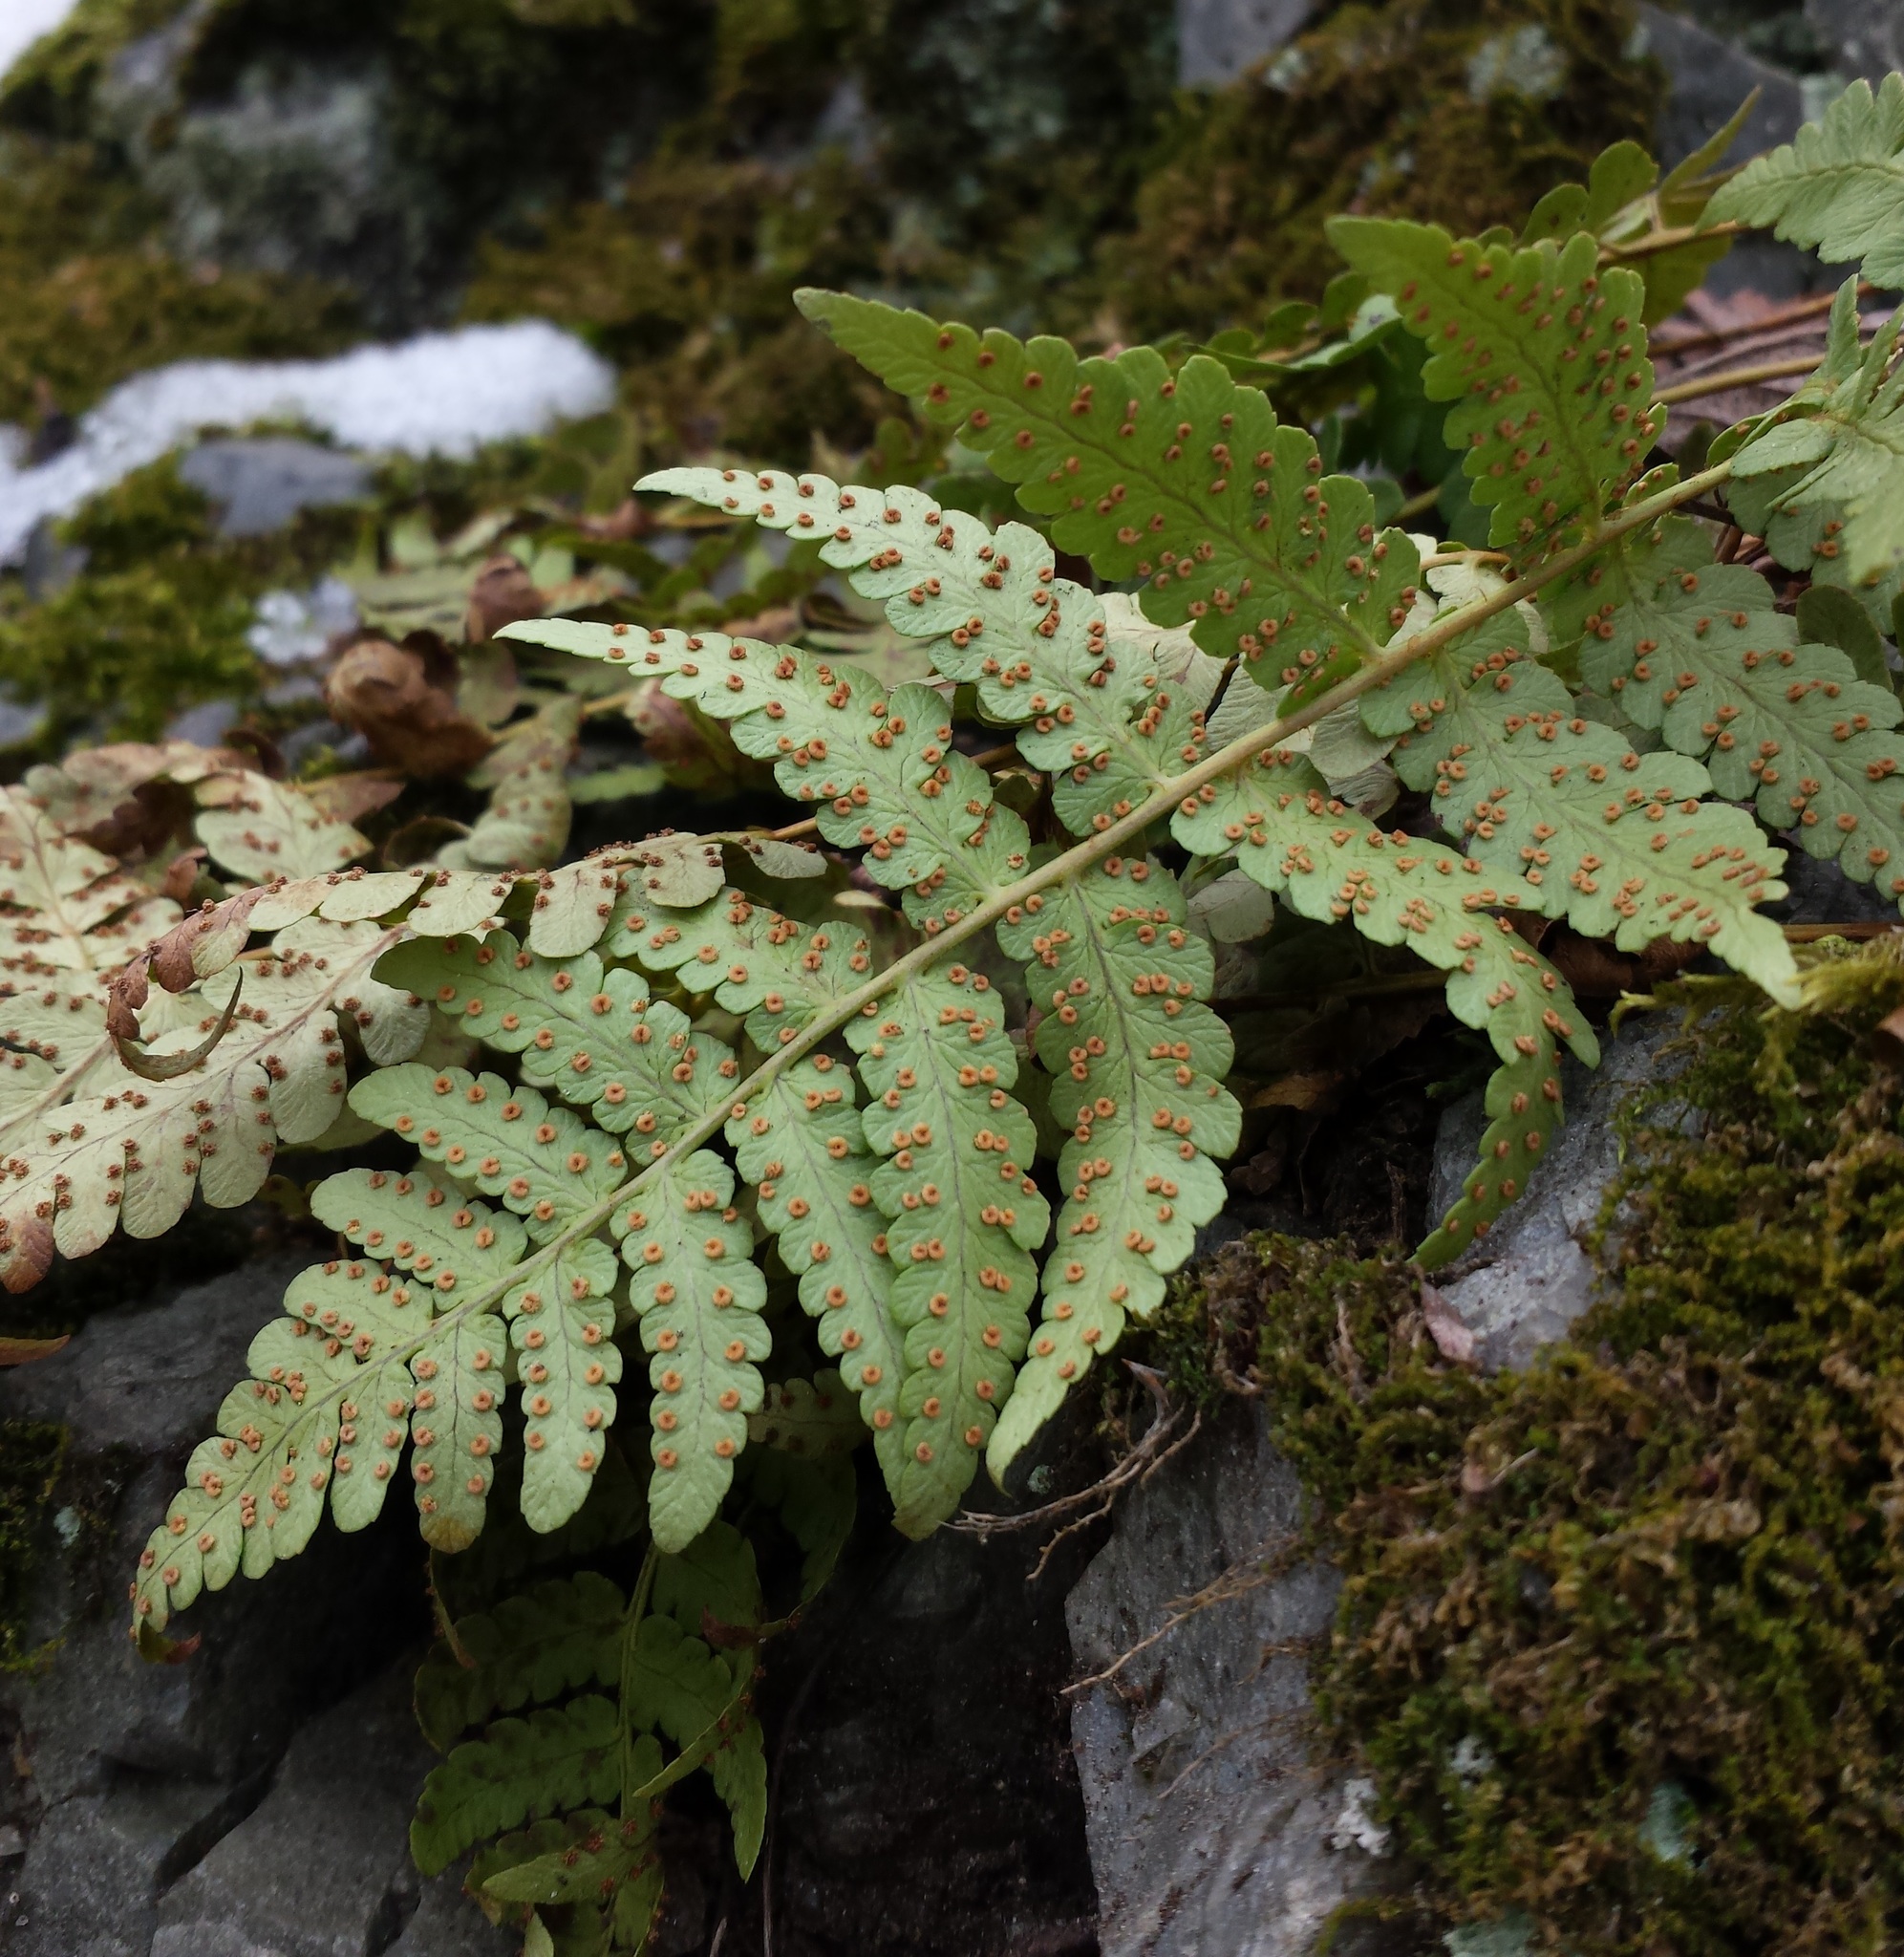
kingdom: Plantae
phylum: Tracheophyta
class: Polypodiopsida
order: Polypodiales
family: Dryopteridaceae
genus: Dryopteris
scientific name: Dryopteris marginalis
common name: Marginal wood fern
